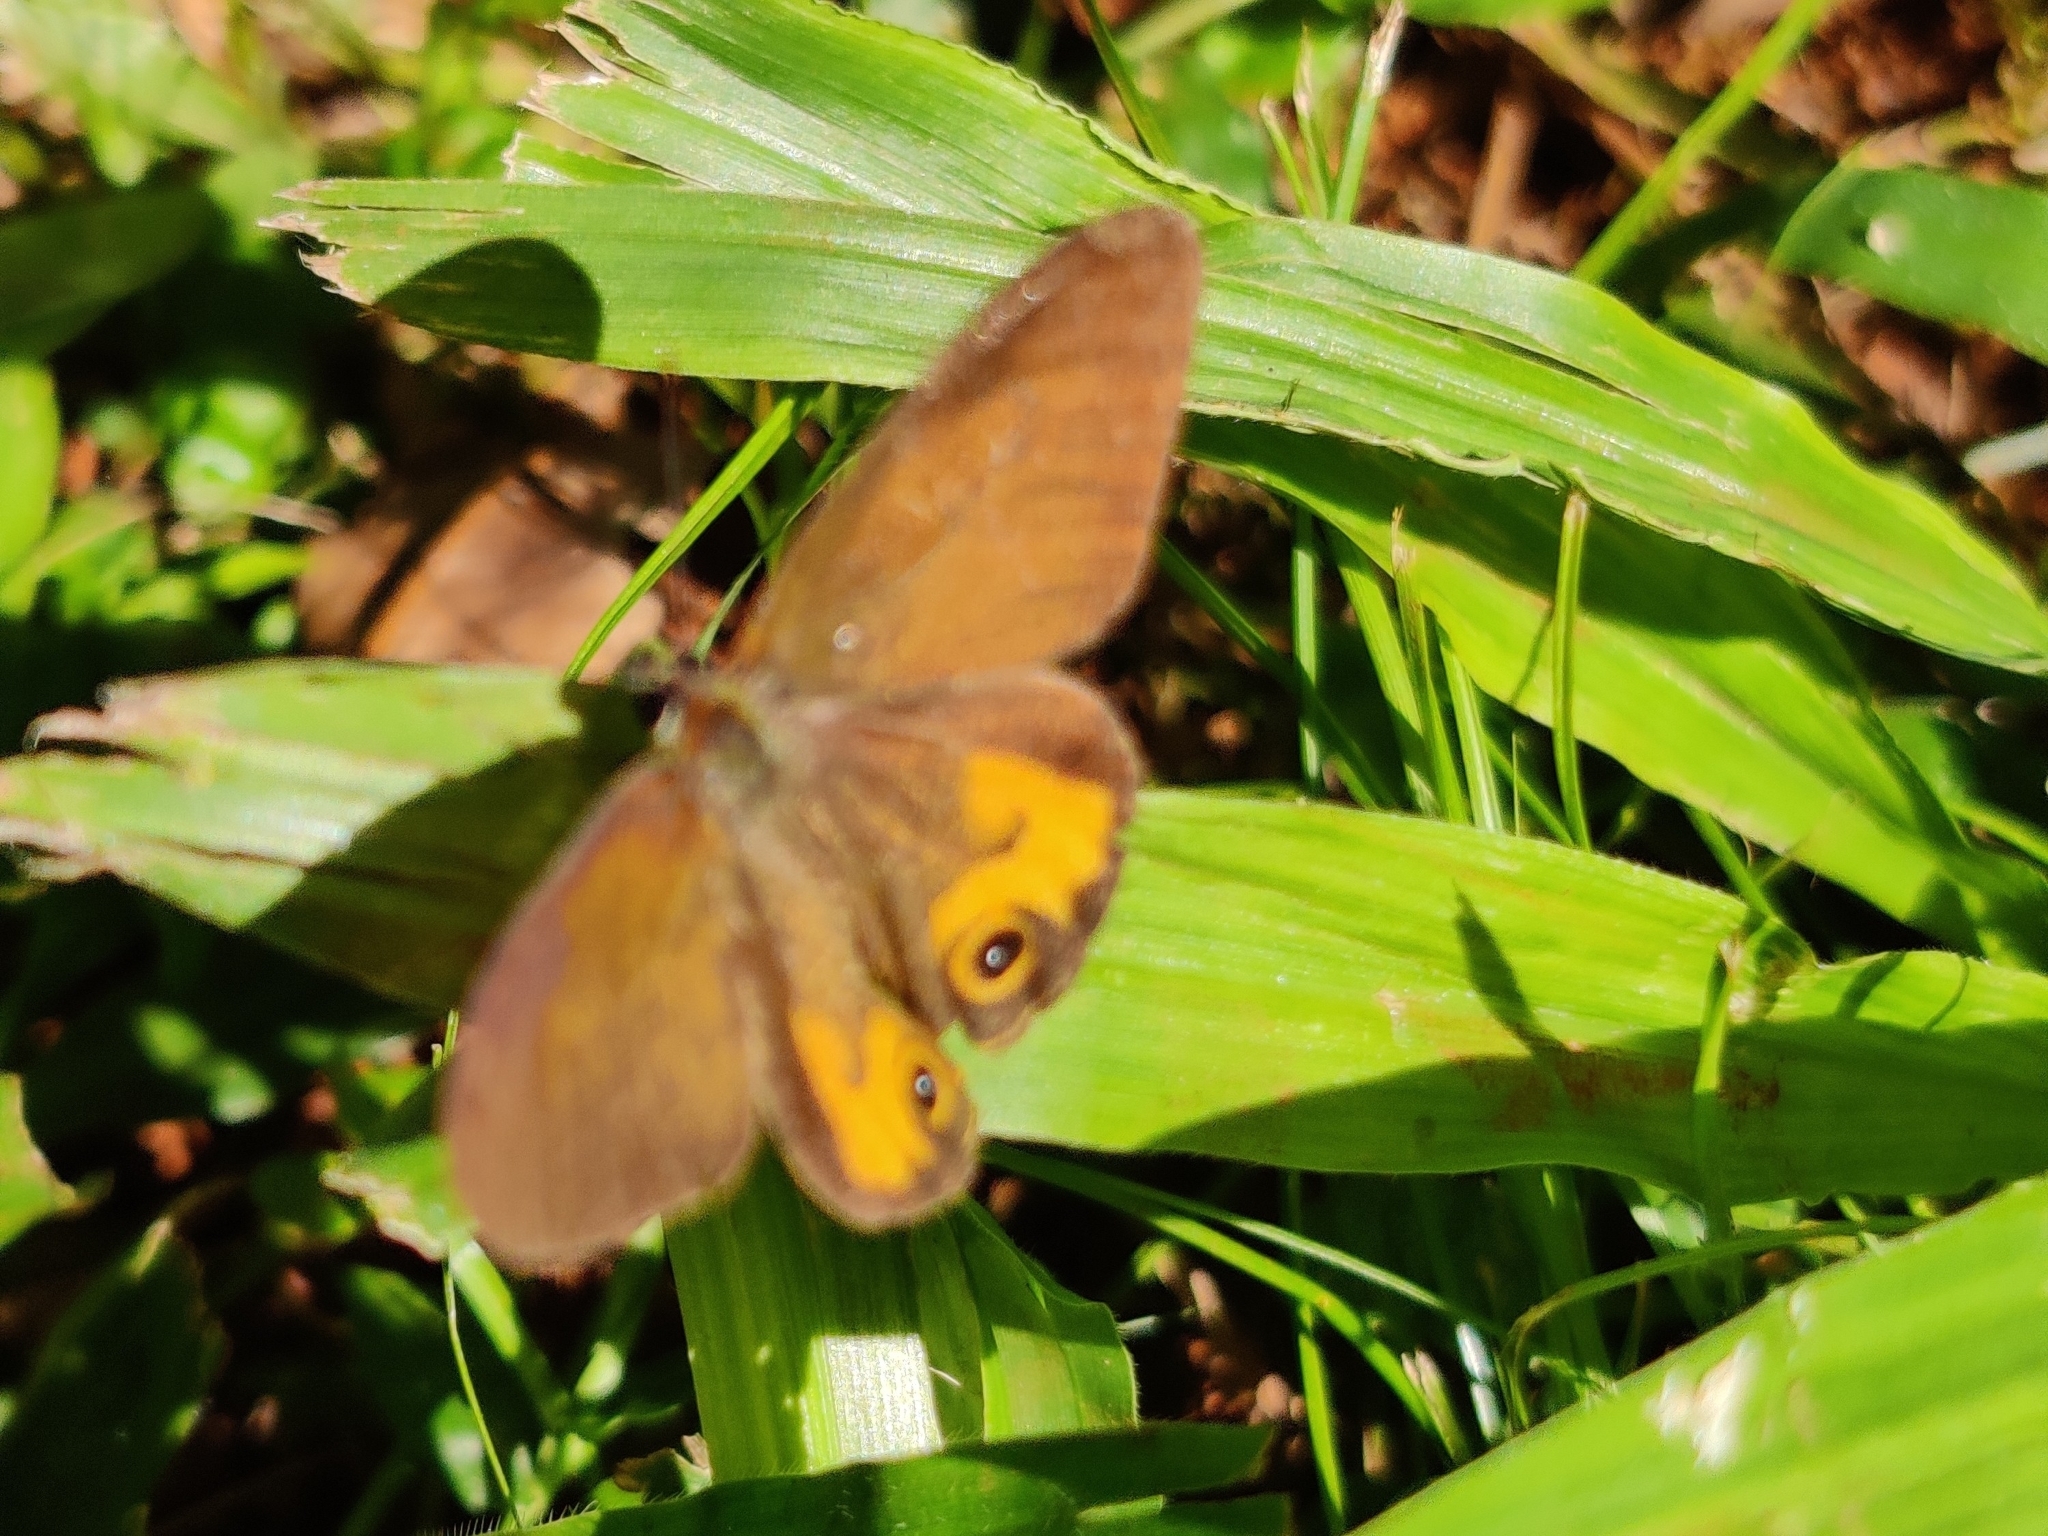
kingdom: Animalia
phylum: Arthropoda
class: Insecta
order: Lepidoptera
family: Nymphalidae
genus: Hypocysta
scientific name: Hypocysta metirius
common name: Brown ringlet
